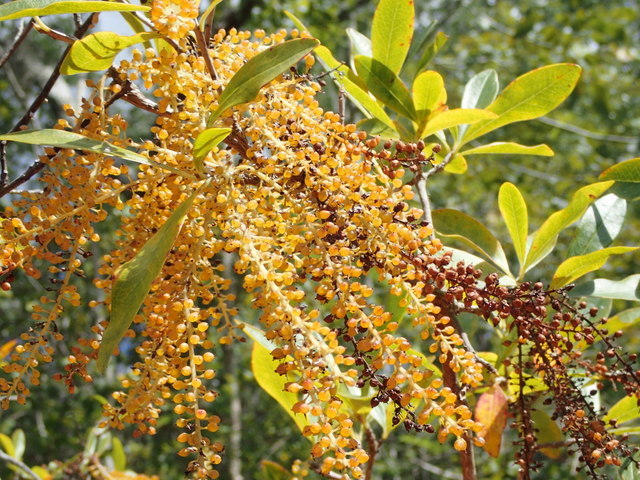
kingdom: Plantae
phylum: Tracheophyta
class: Magnoliopsida
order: Ericales
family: Cyrillaceae
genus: Cyrilla
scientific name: Cyrilla racemiflora
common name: Black titi
